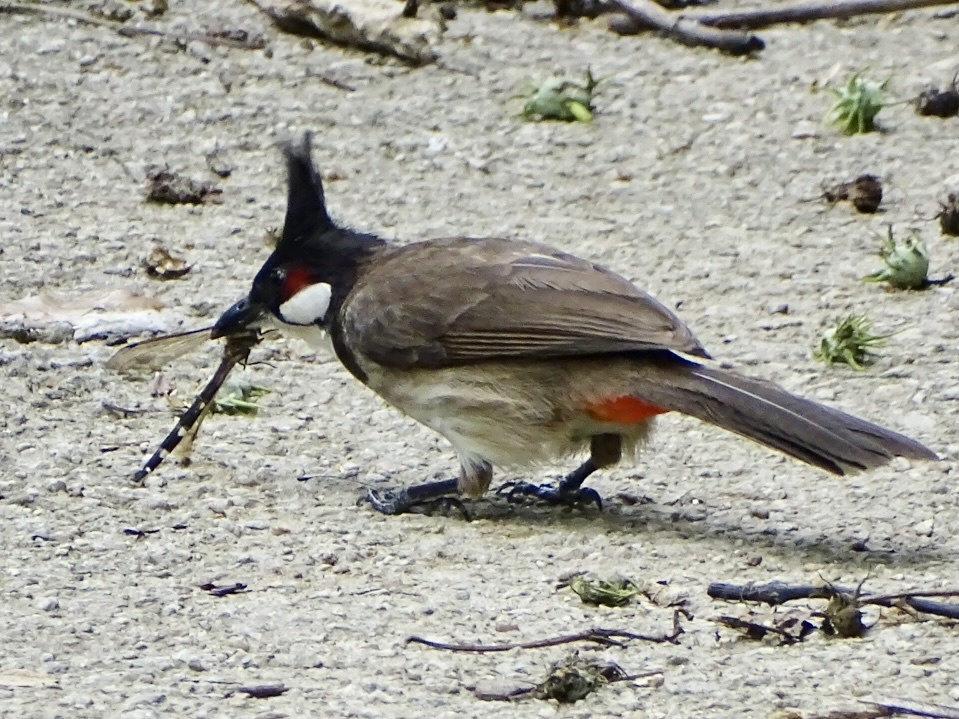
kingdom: Animalia
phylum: Chordata
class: Aves
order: Passeriformes
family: Pycnonotidae
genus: Pycnonotus
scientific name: Pycnonotus jocosus
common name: Red-whiskered bulbul
